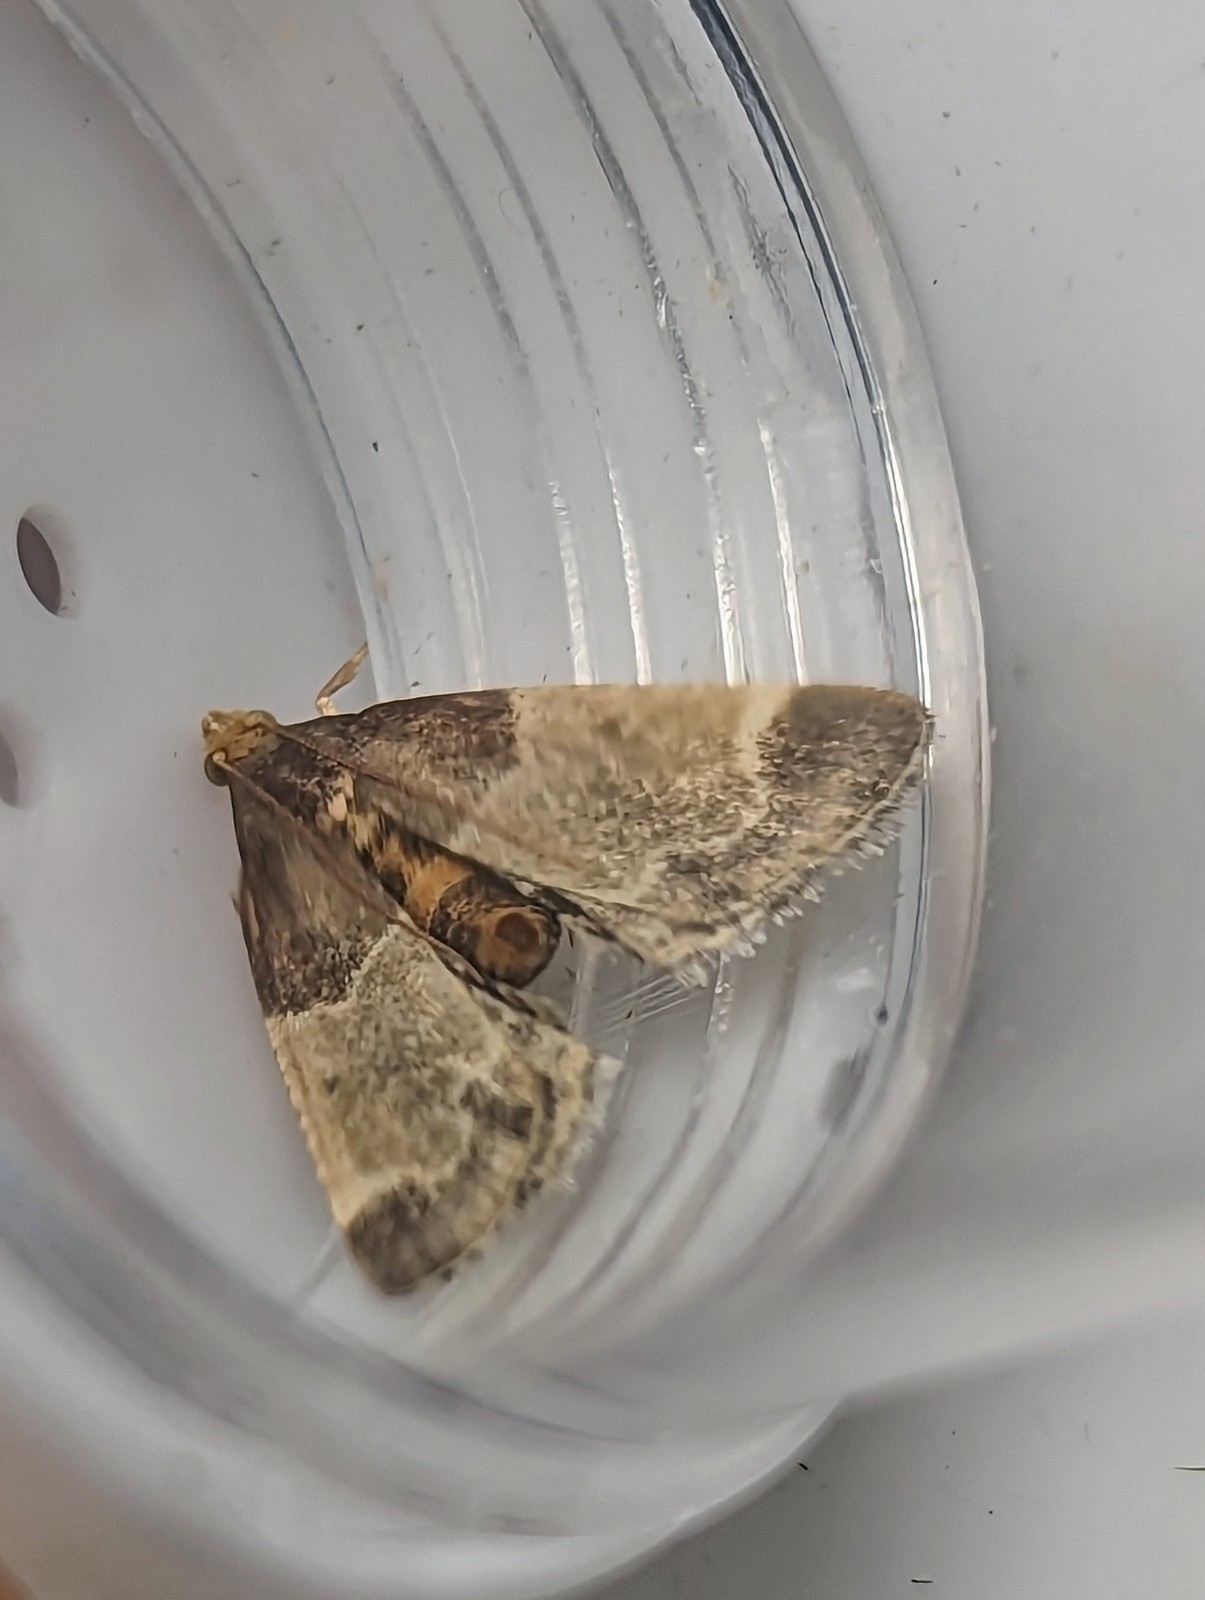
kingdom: Animalia
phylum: Arthropoda
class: Insecta
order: Lepidoptera
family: Pyralidae
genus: Pyralis
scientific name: Pyralis farinalis
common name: Meal moth
